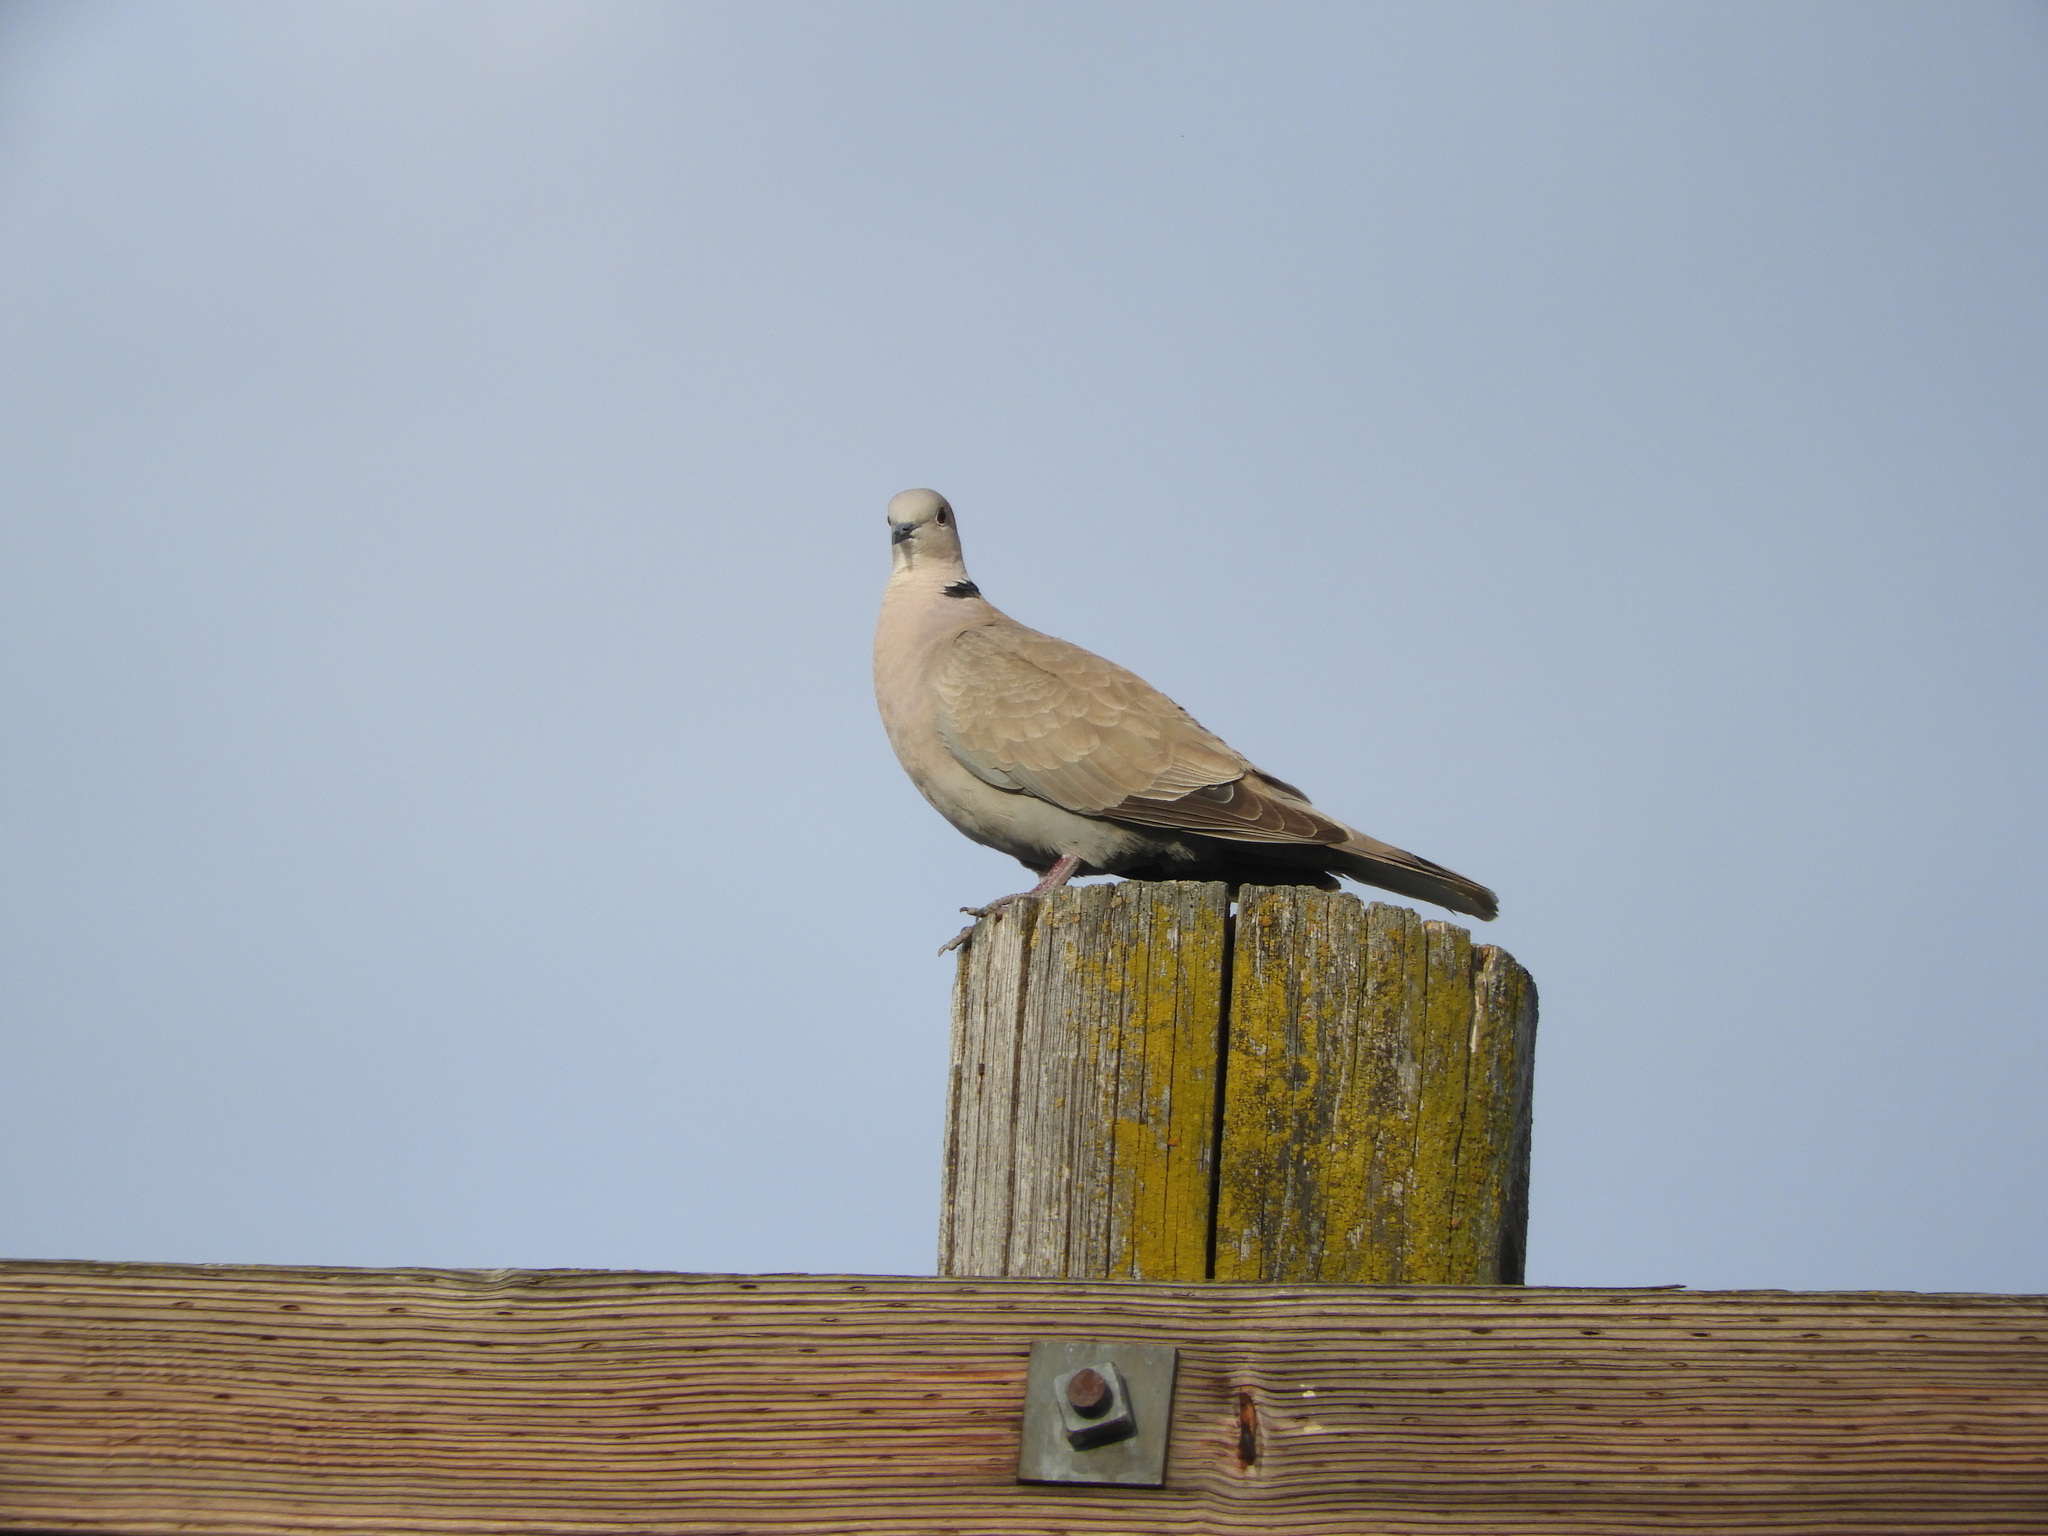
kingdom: Animalia
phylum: Chordata
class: Aves
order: Columbiformes
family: Columbidae
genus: Streptopelia
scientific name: Streptopelia decaocto
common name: Eurasian collared dove
